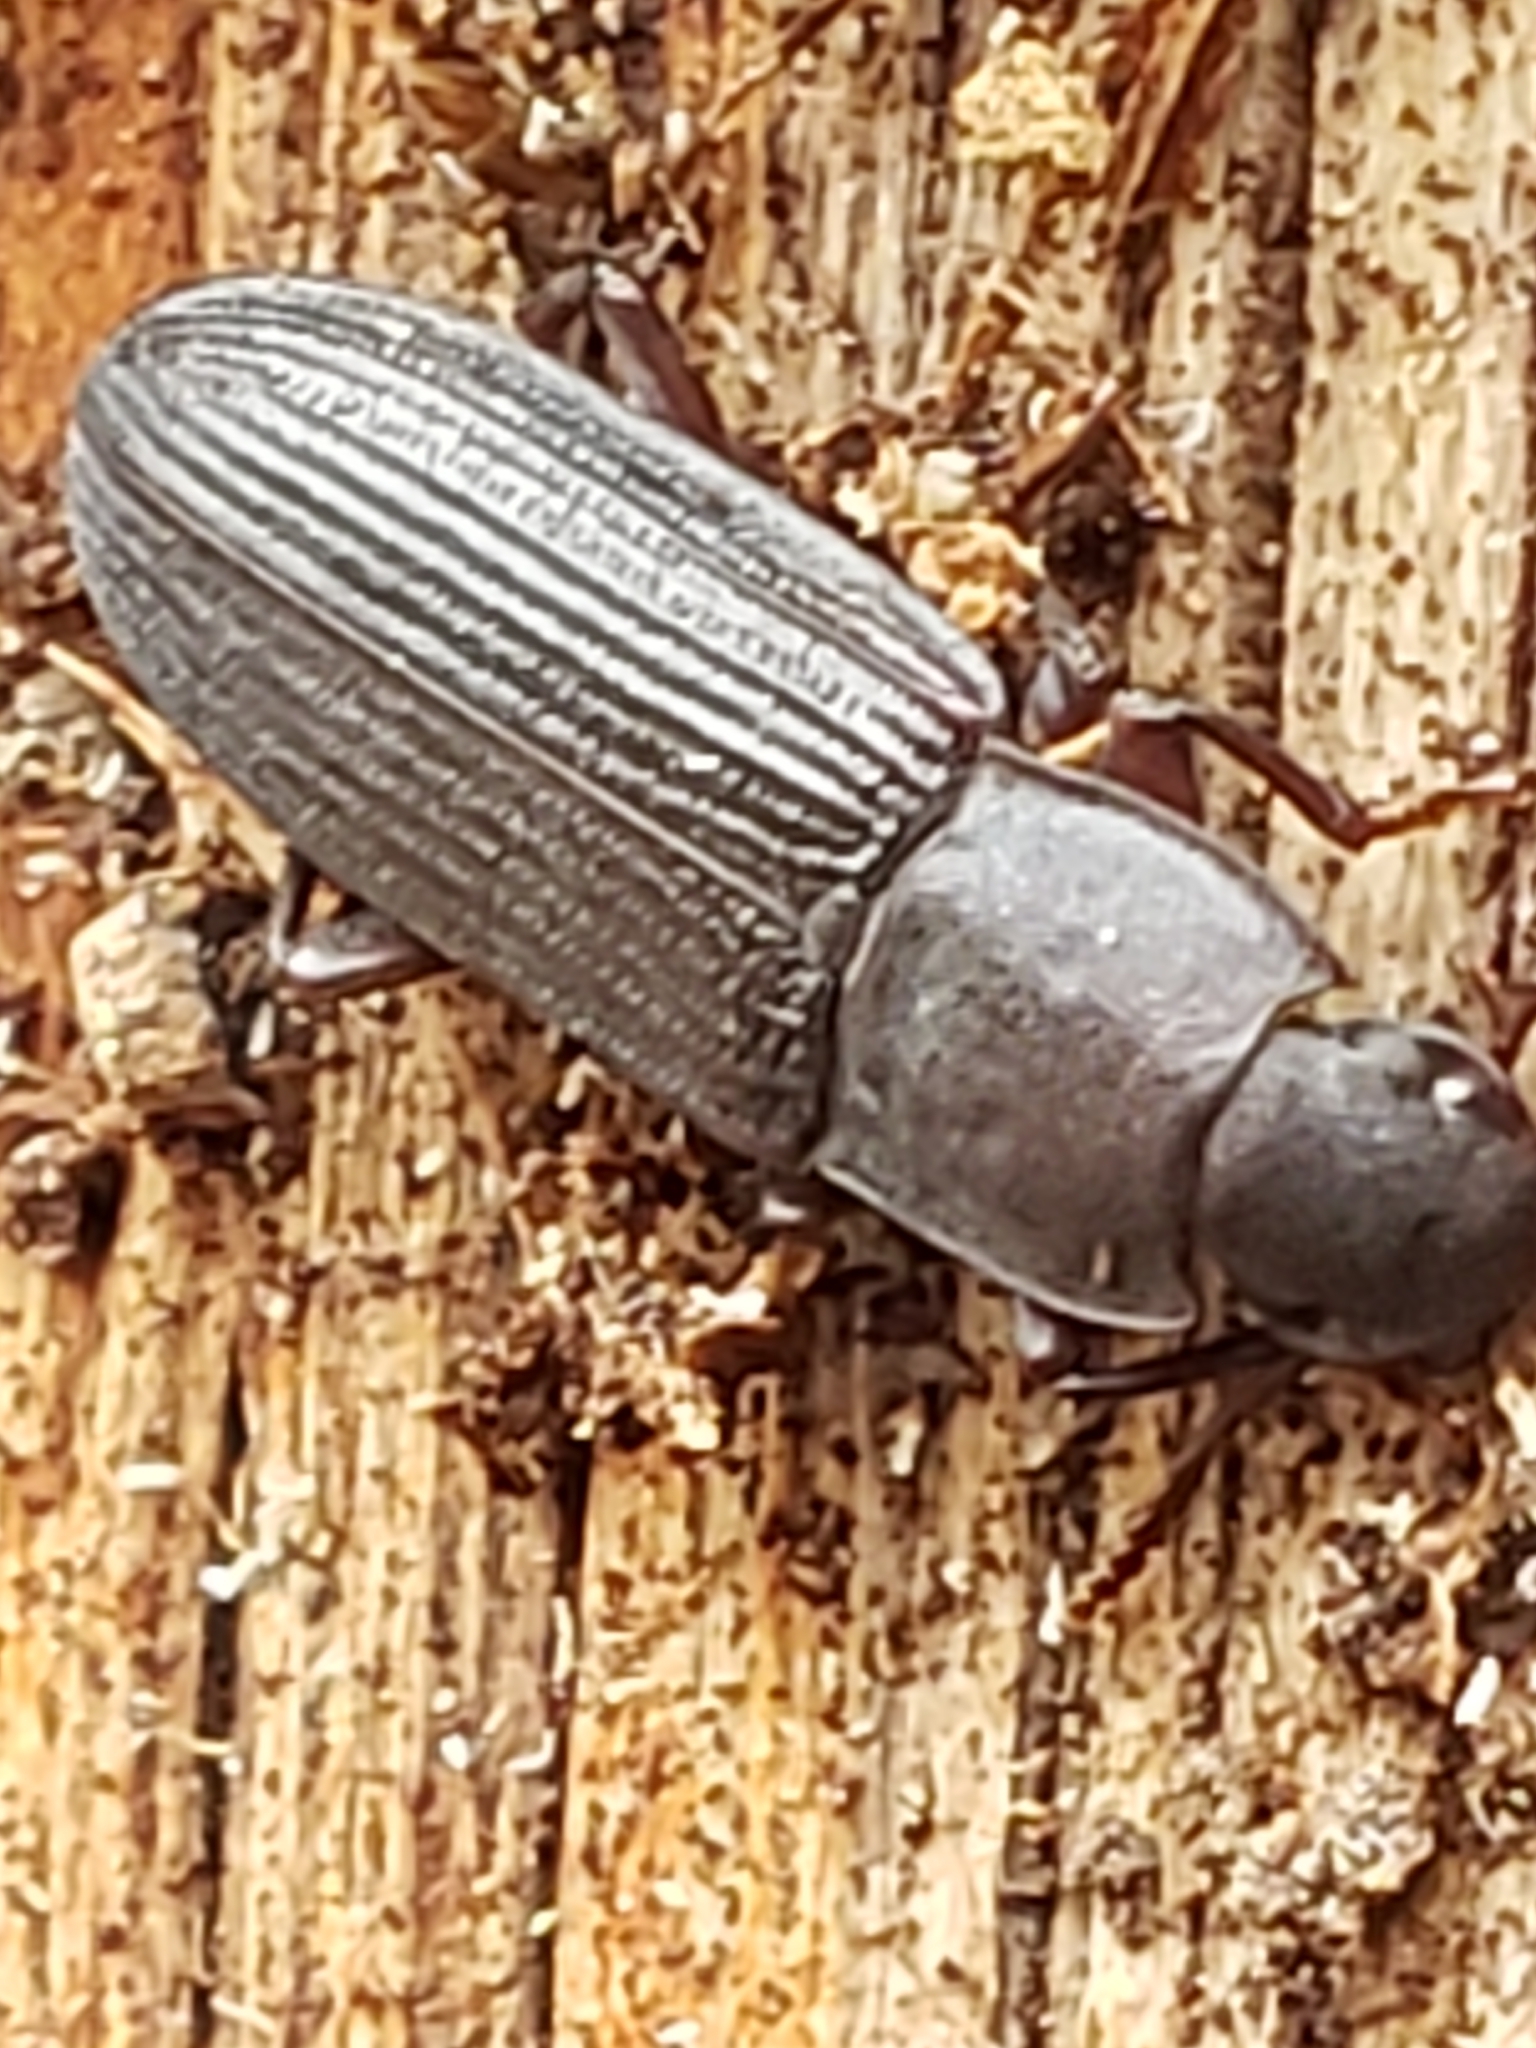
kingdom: Animalia
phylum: Arthropoda
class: Insecta
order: Coleoptera
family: Tenebrionidae
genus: Idiobates
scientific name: Idiobates castaneus
